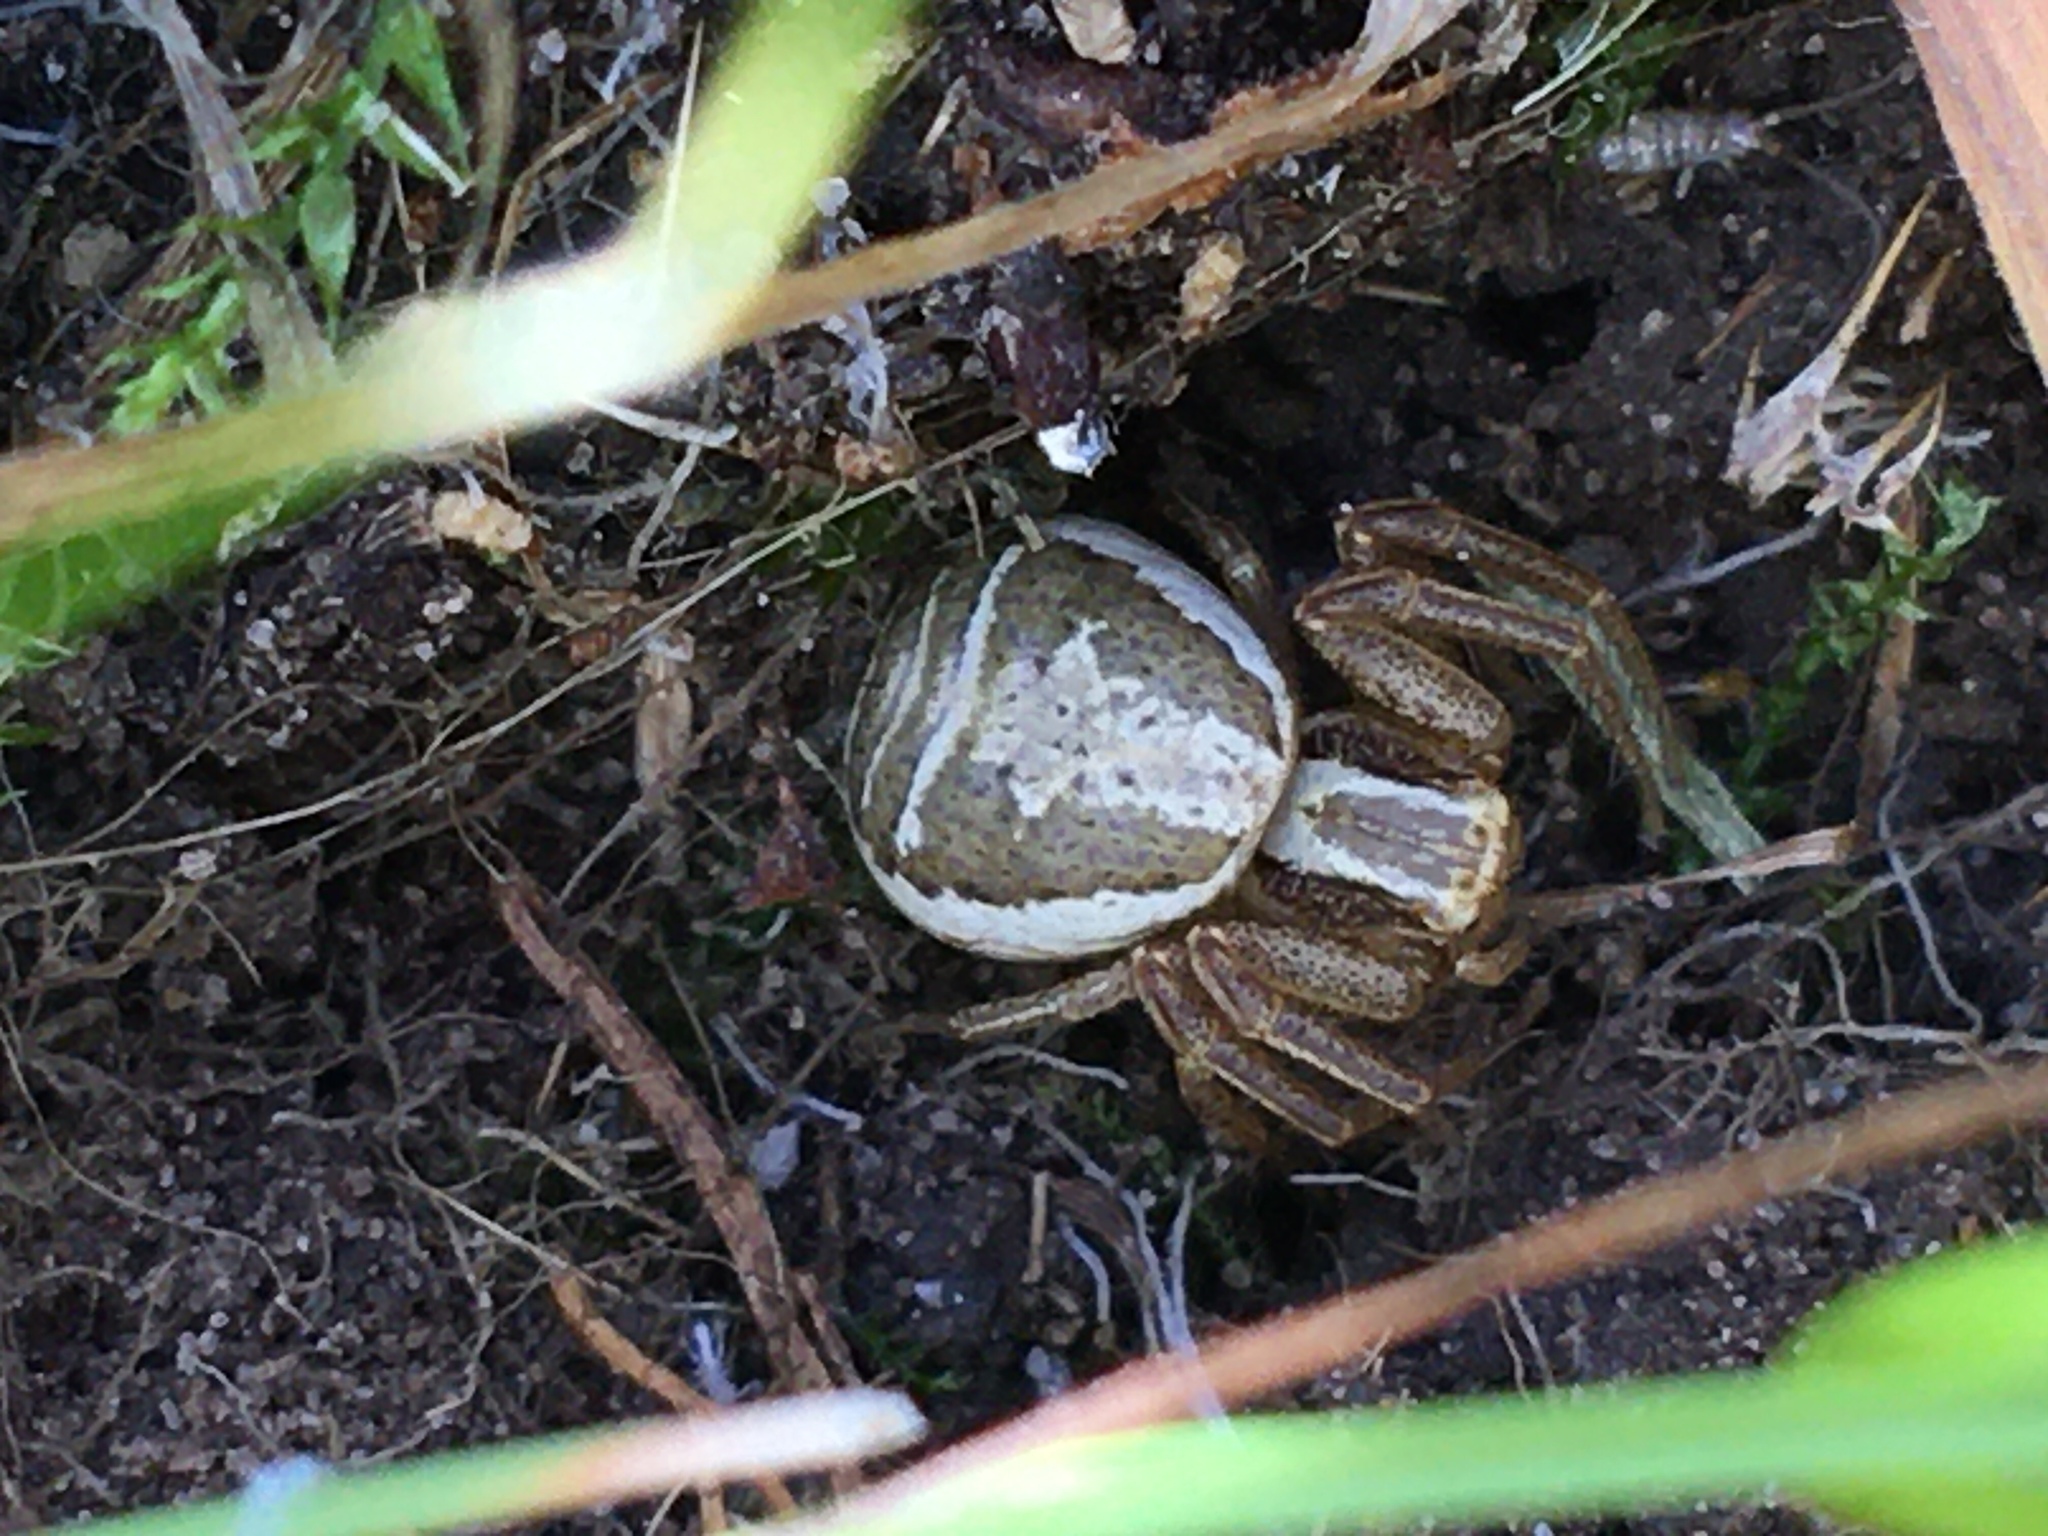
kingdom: Animalia
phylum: Arthropoda
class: Arachnida
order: Araneae
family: Thomisidae
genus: Xysticus
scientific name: Xysticus ulmi
